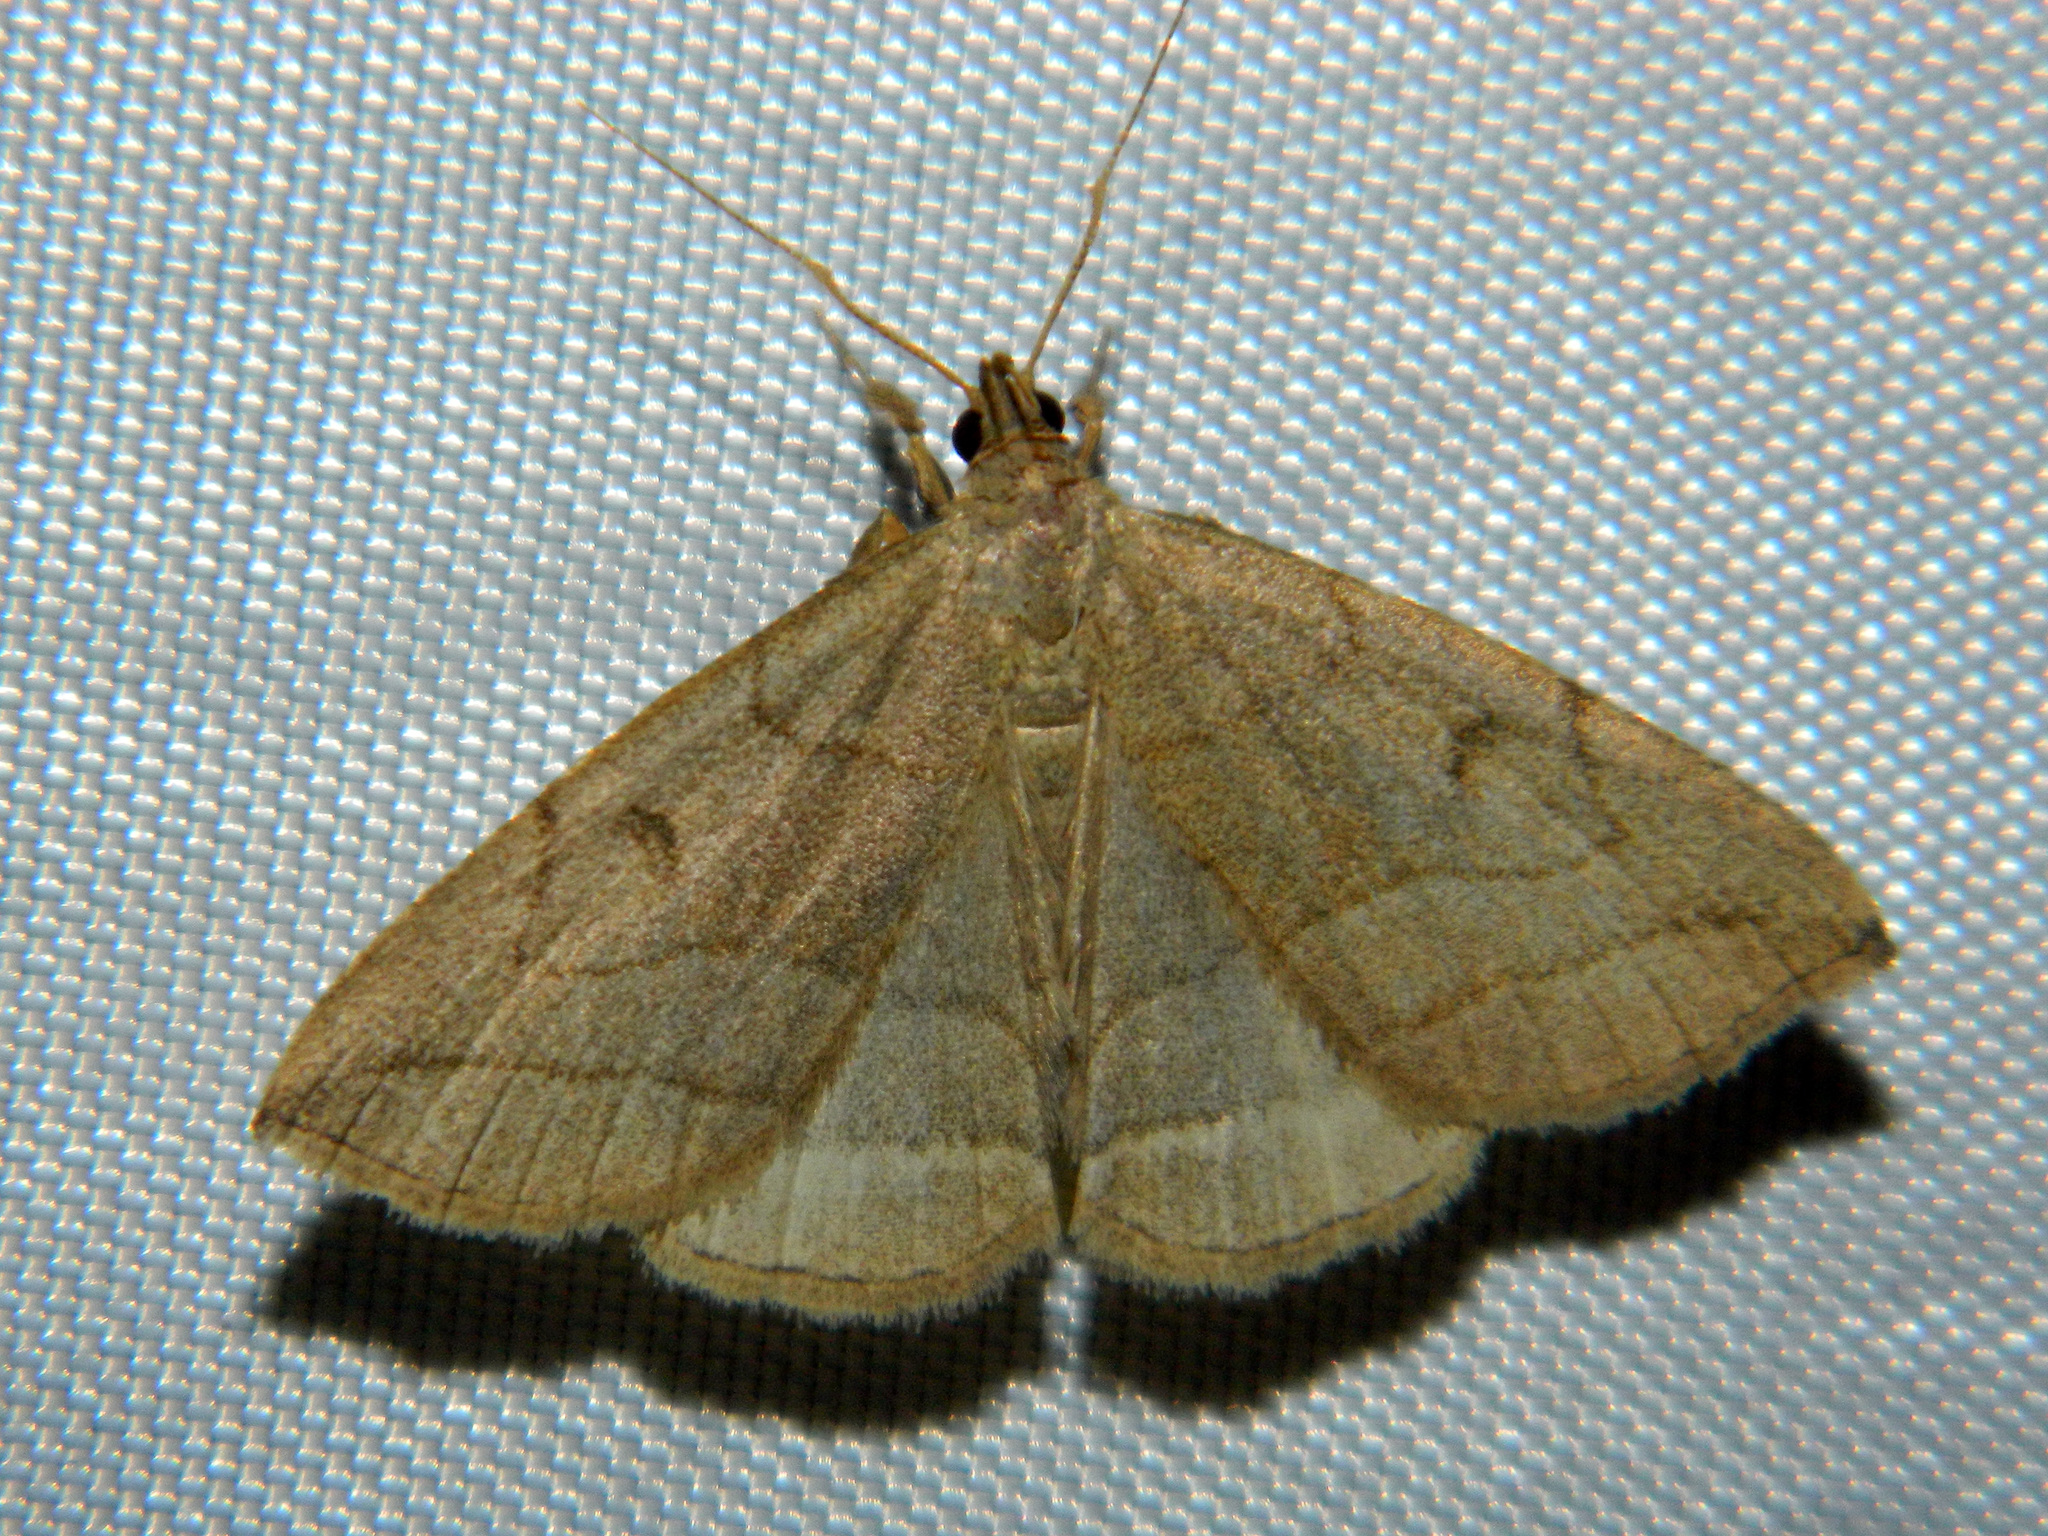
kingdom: Animalia
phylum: Arthropoda
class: Insecta
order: Lepidoptera
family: Erebidae
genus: Zanclognatha
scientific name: Zanclognatha pedipilalis
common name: Grayish fan-foot
